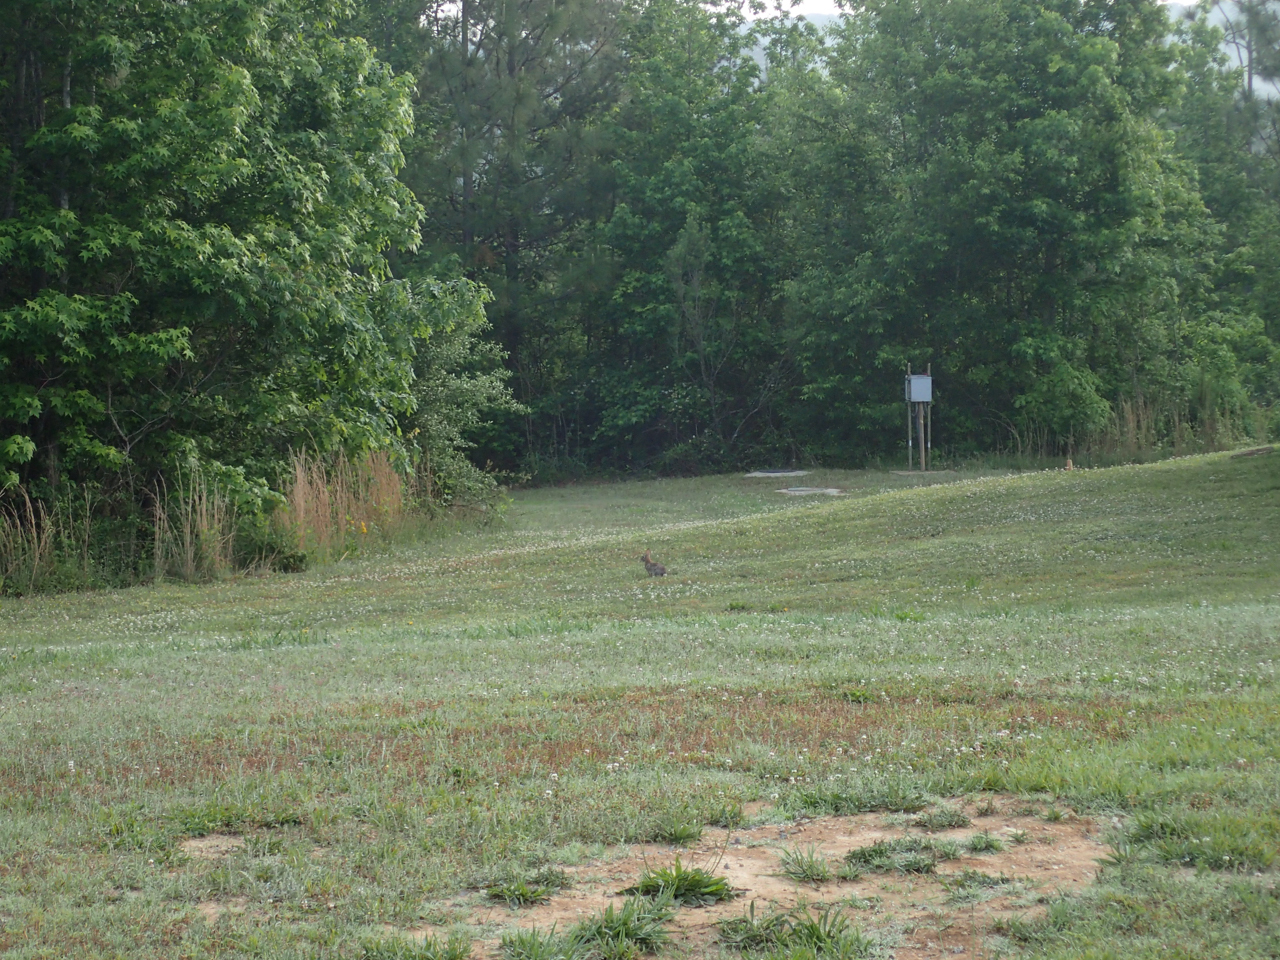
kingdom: Animalia
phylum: Chordata
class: Mammalia
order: Lagomorpha
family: Leporidae
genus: Sylvilagus
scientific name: Sylvilagus floridanus
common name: Eastern cottontail
